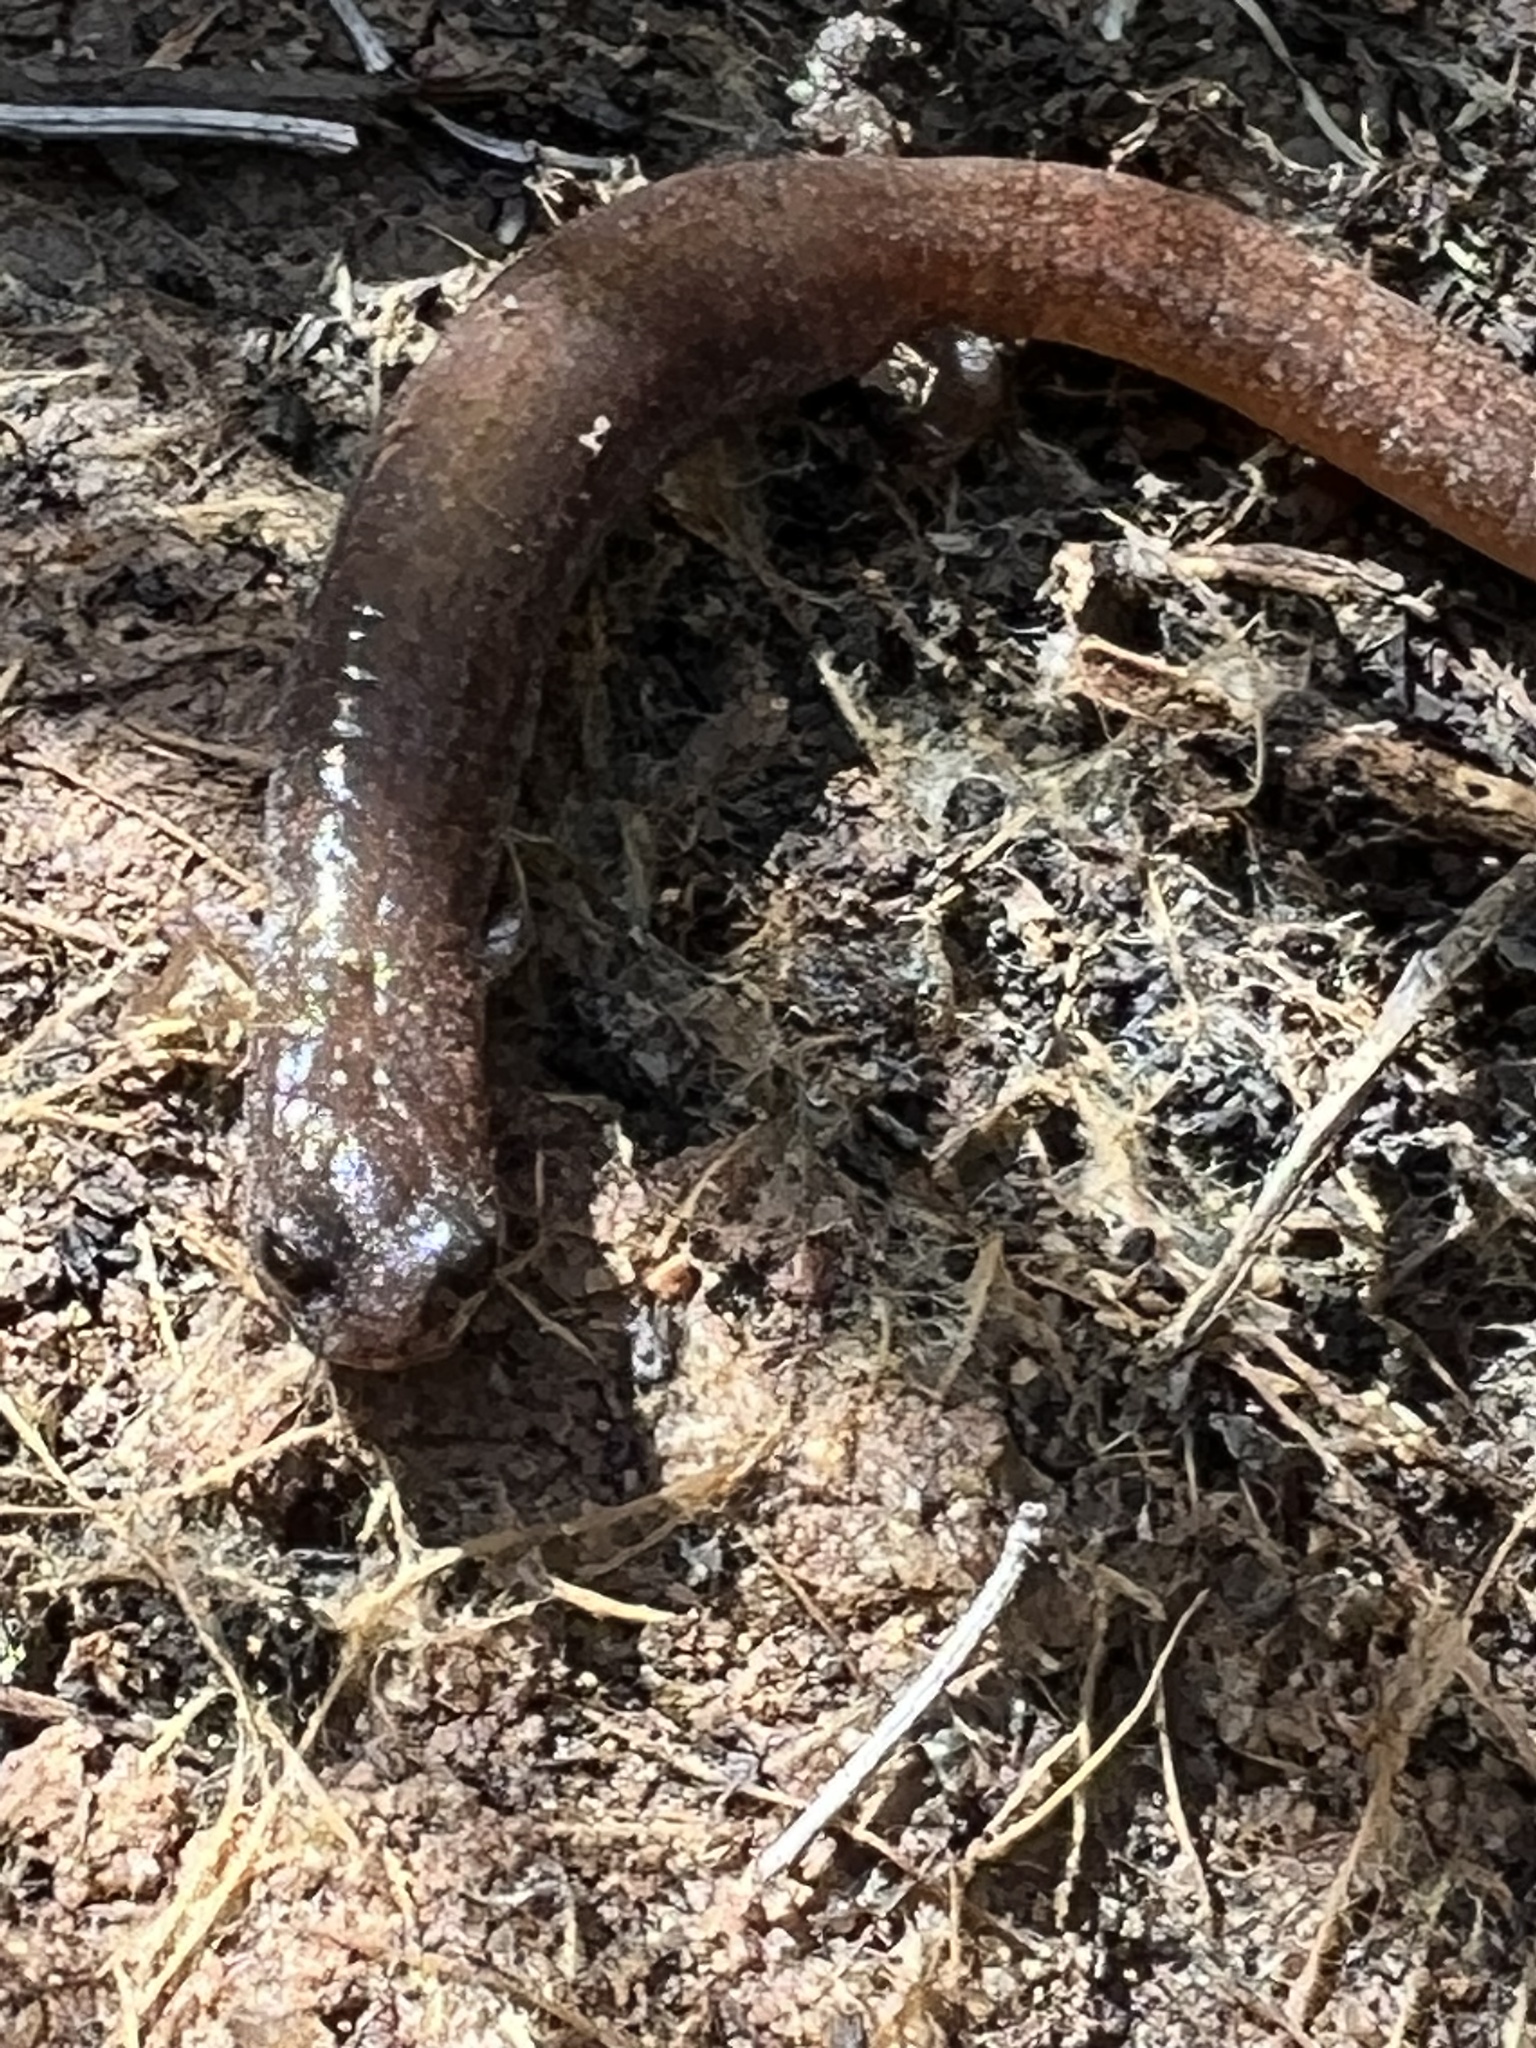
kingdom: Animalia
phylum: Chordata
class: Amphibia
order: Caudata
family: Plethodontidae
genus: Batrachoseps
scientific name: Batrachoseps major
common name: Garden slender salamander
